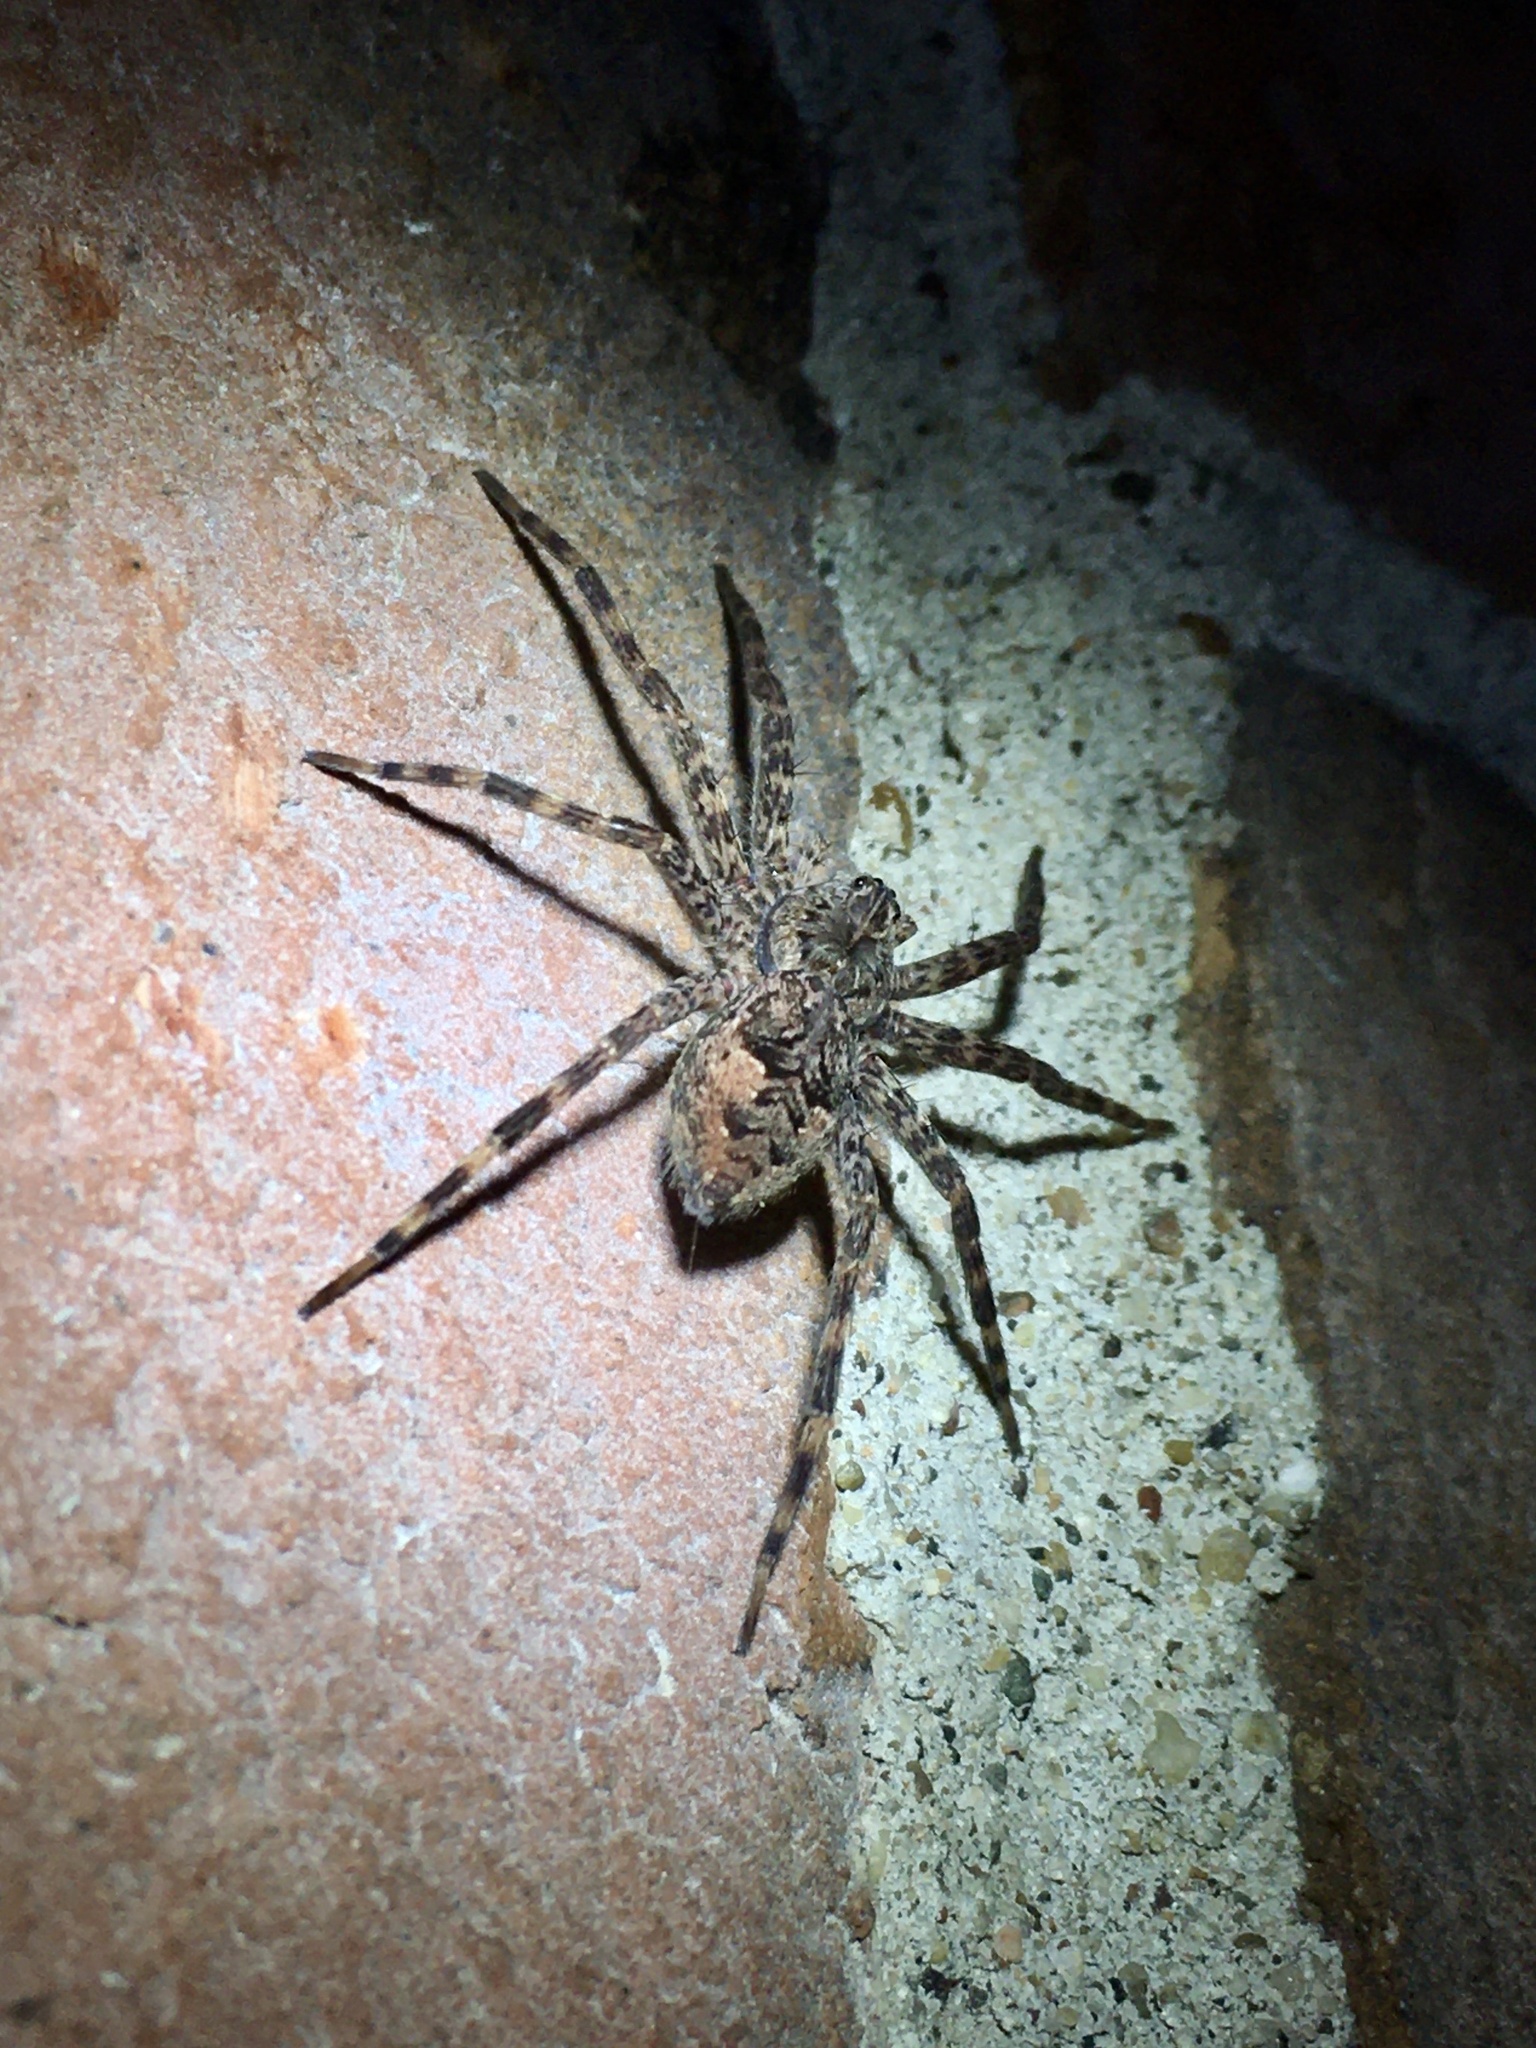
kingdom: Animalia
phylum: Arthropoda
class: Arachnida
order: Araneae
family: Pisauridae
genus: Dolomedes
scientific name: Dolomedes tenebrosus
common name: Dark fishing spider
